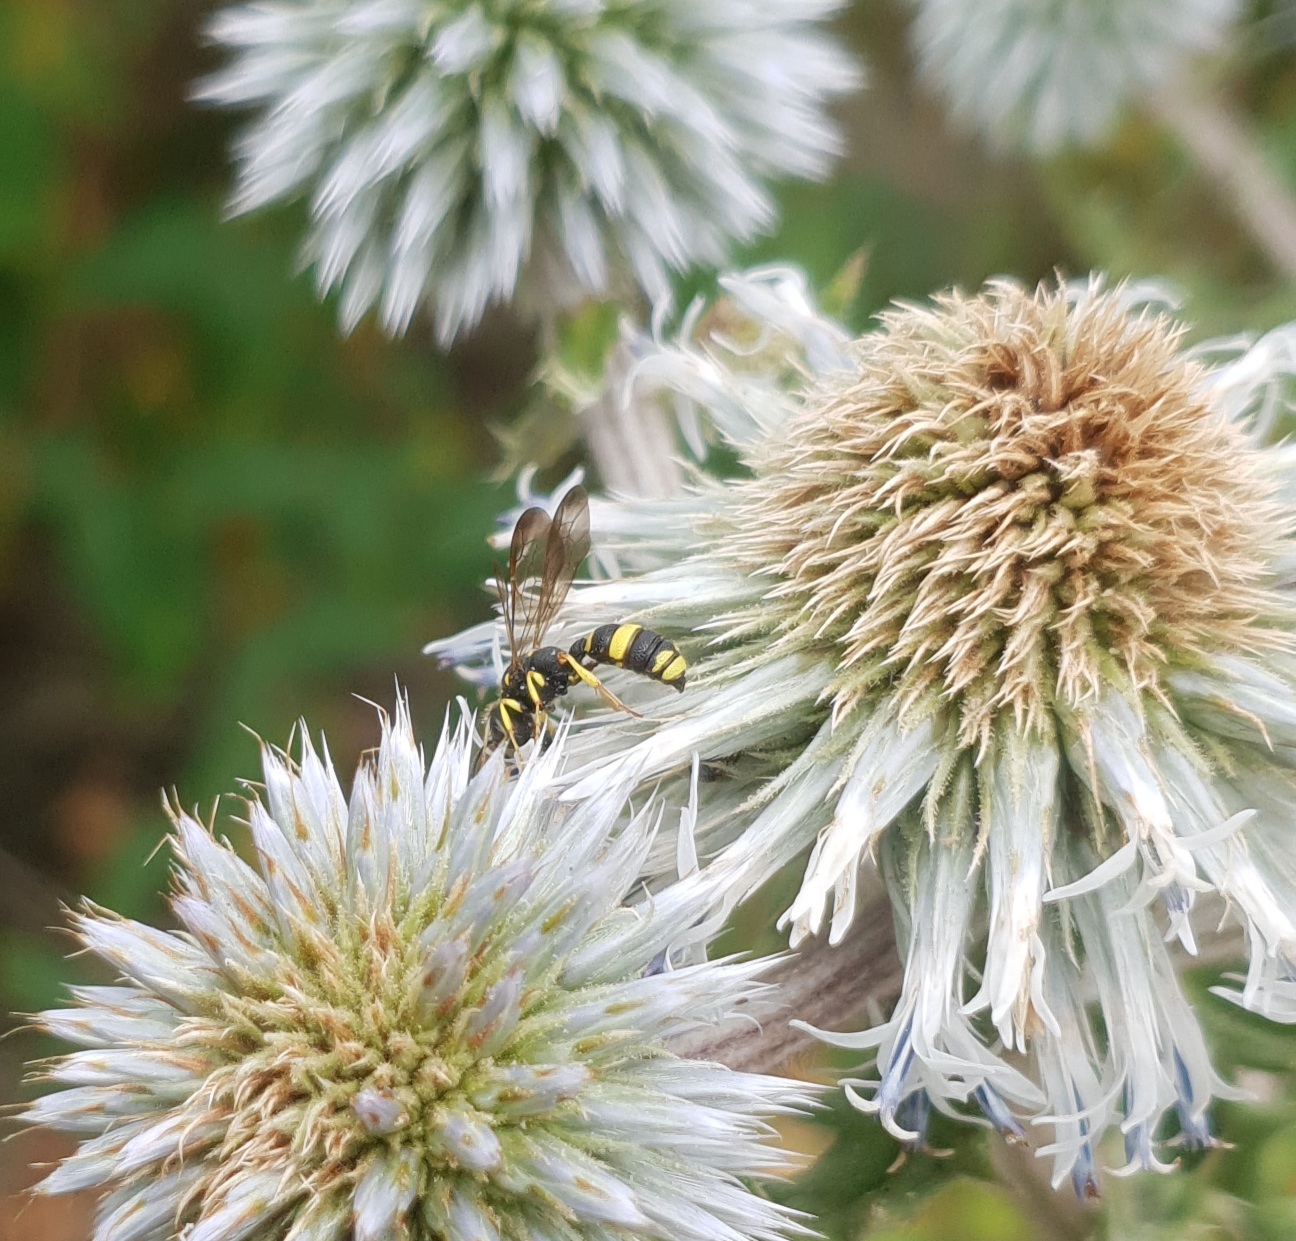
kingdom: Animalia
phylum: Arthropoda
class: Insecta
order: Hymenoptera
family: Crabronidae
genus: Cerceris
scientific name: Cerceris rybyensis
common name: Ornate tailed digger wasp
